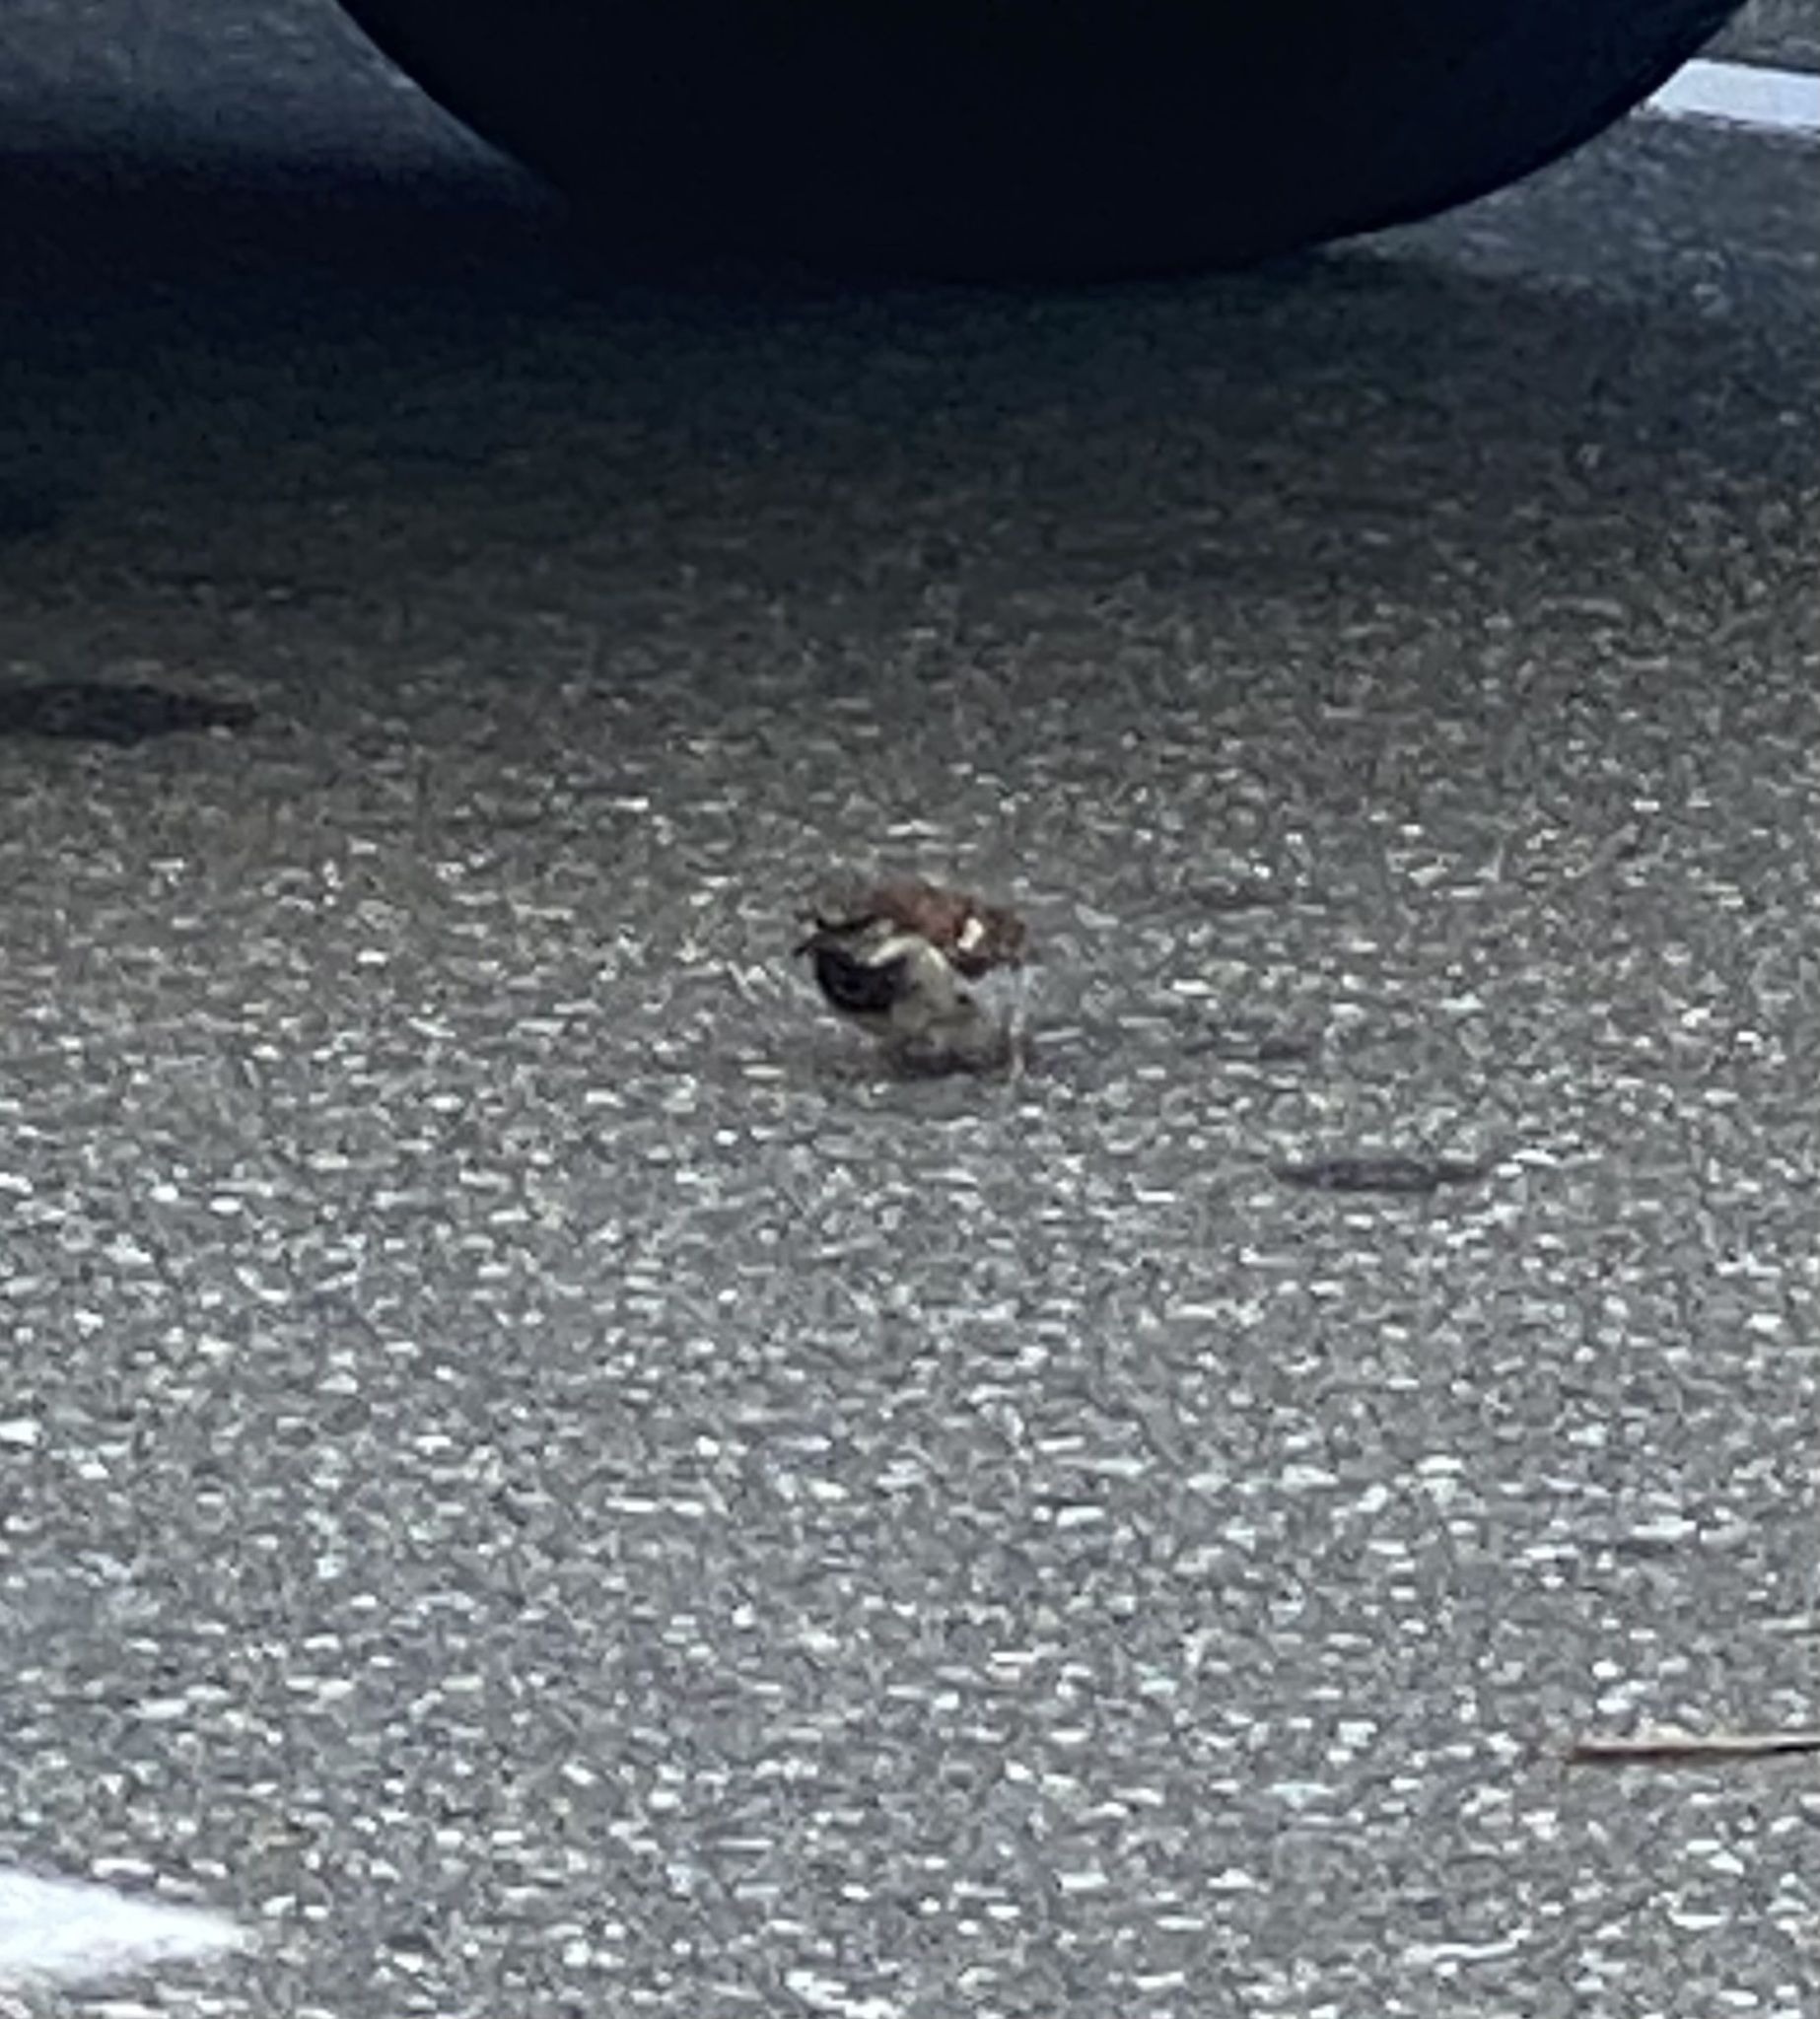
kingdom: Animalia
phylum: Chordata
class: Aves
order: Passeriformes
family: Passeridae
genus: Passer
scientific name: Passer domesticus
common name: House sparrow
